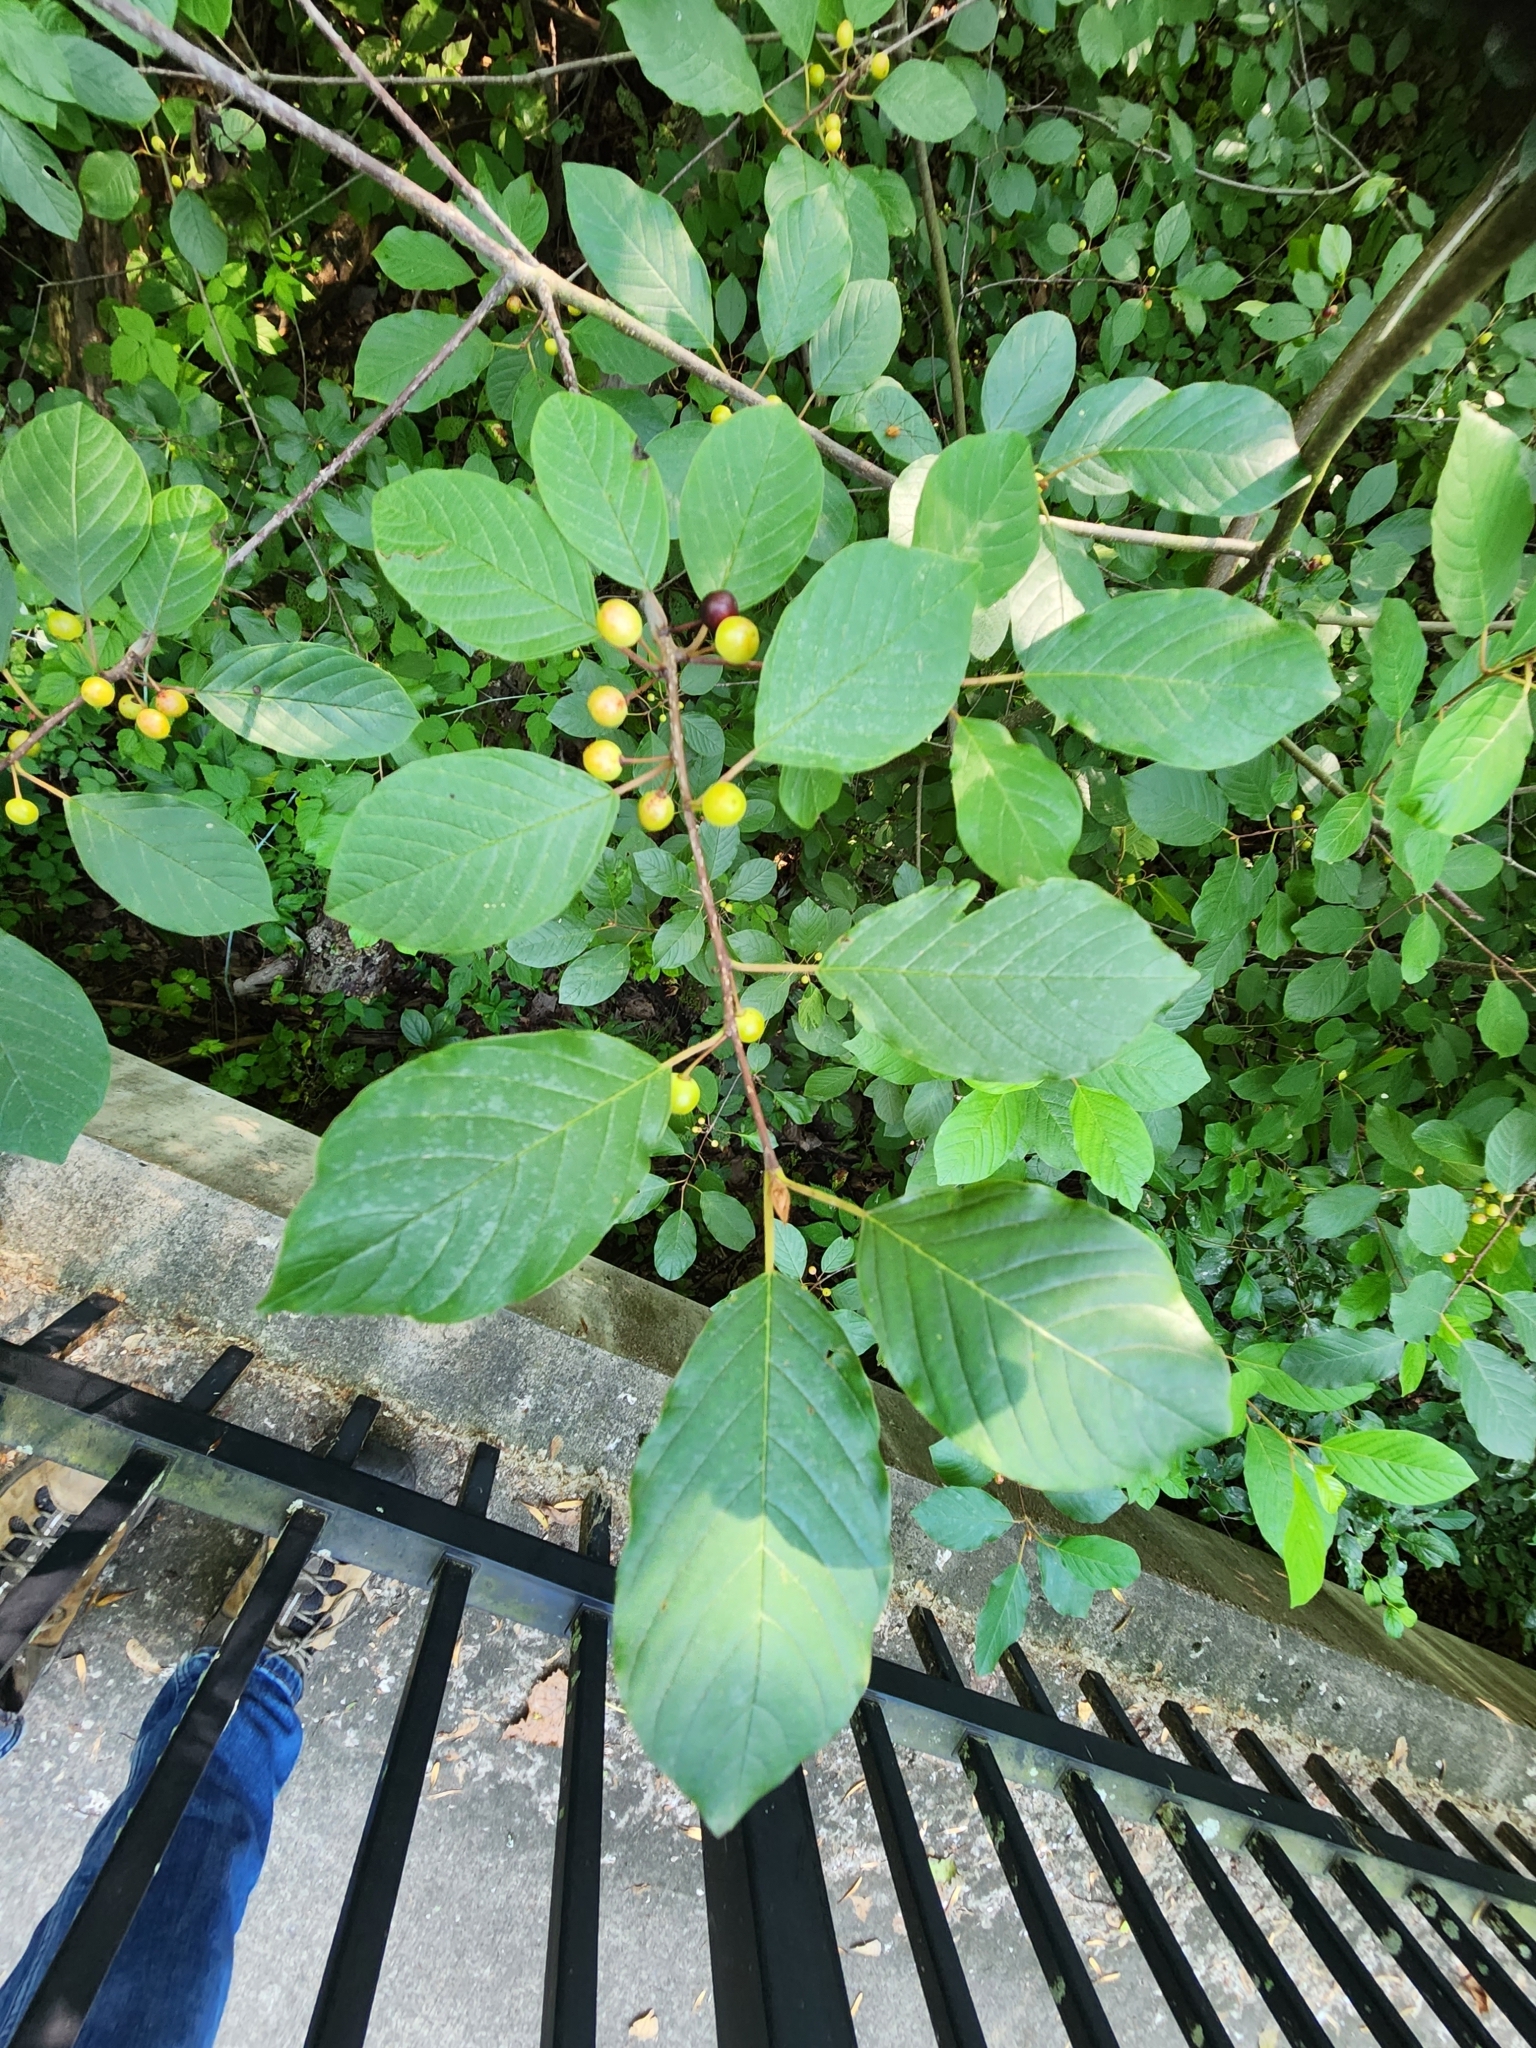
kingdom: Plantae
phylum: Tracheophyta
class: Magnoliopsida
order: Rosales
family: Rhamnaceae
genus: Frangula
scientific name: Frangula alnus
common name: Alder buckthorn
